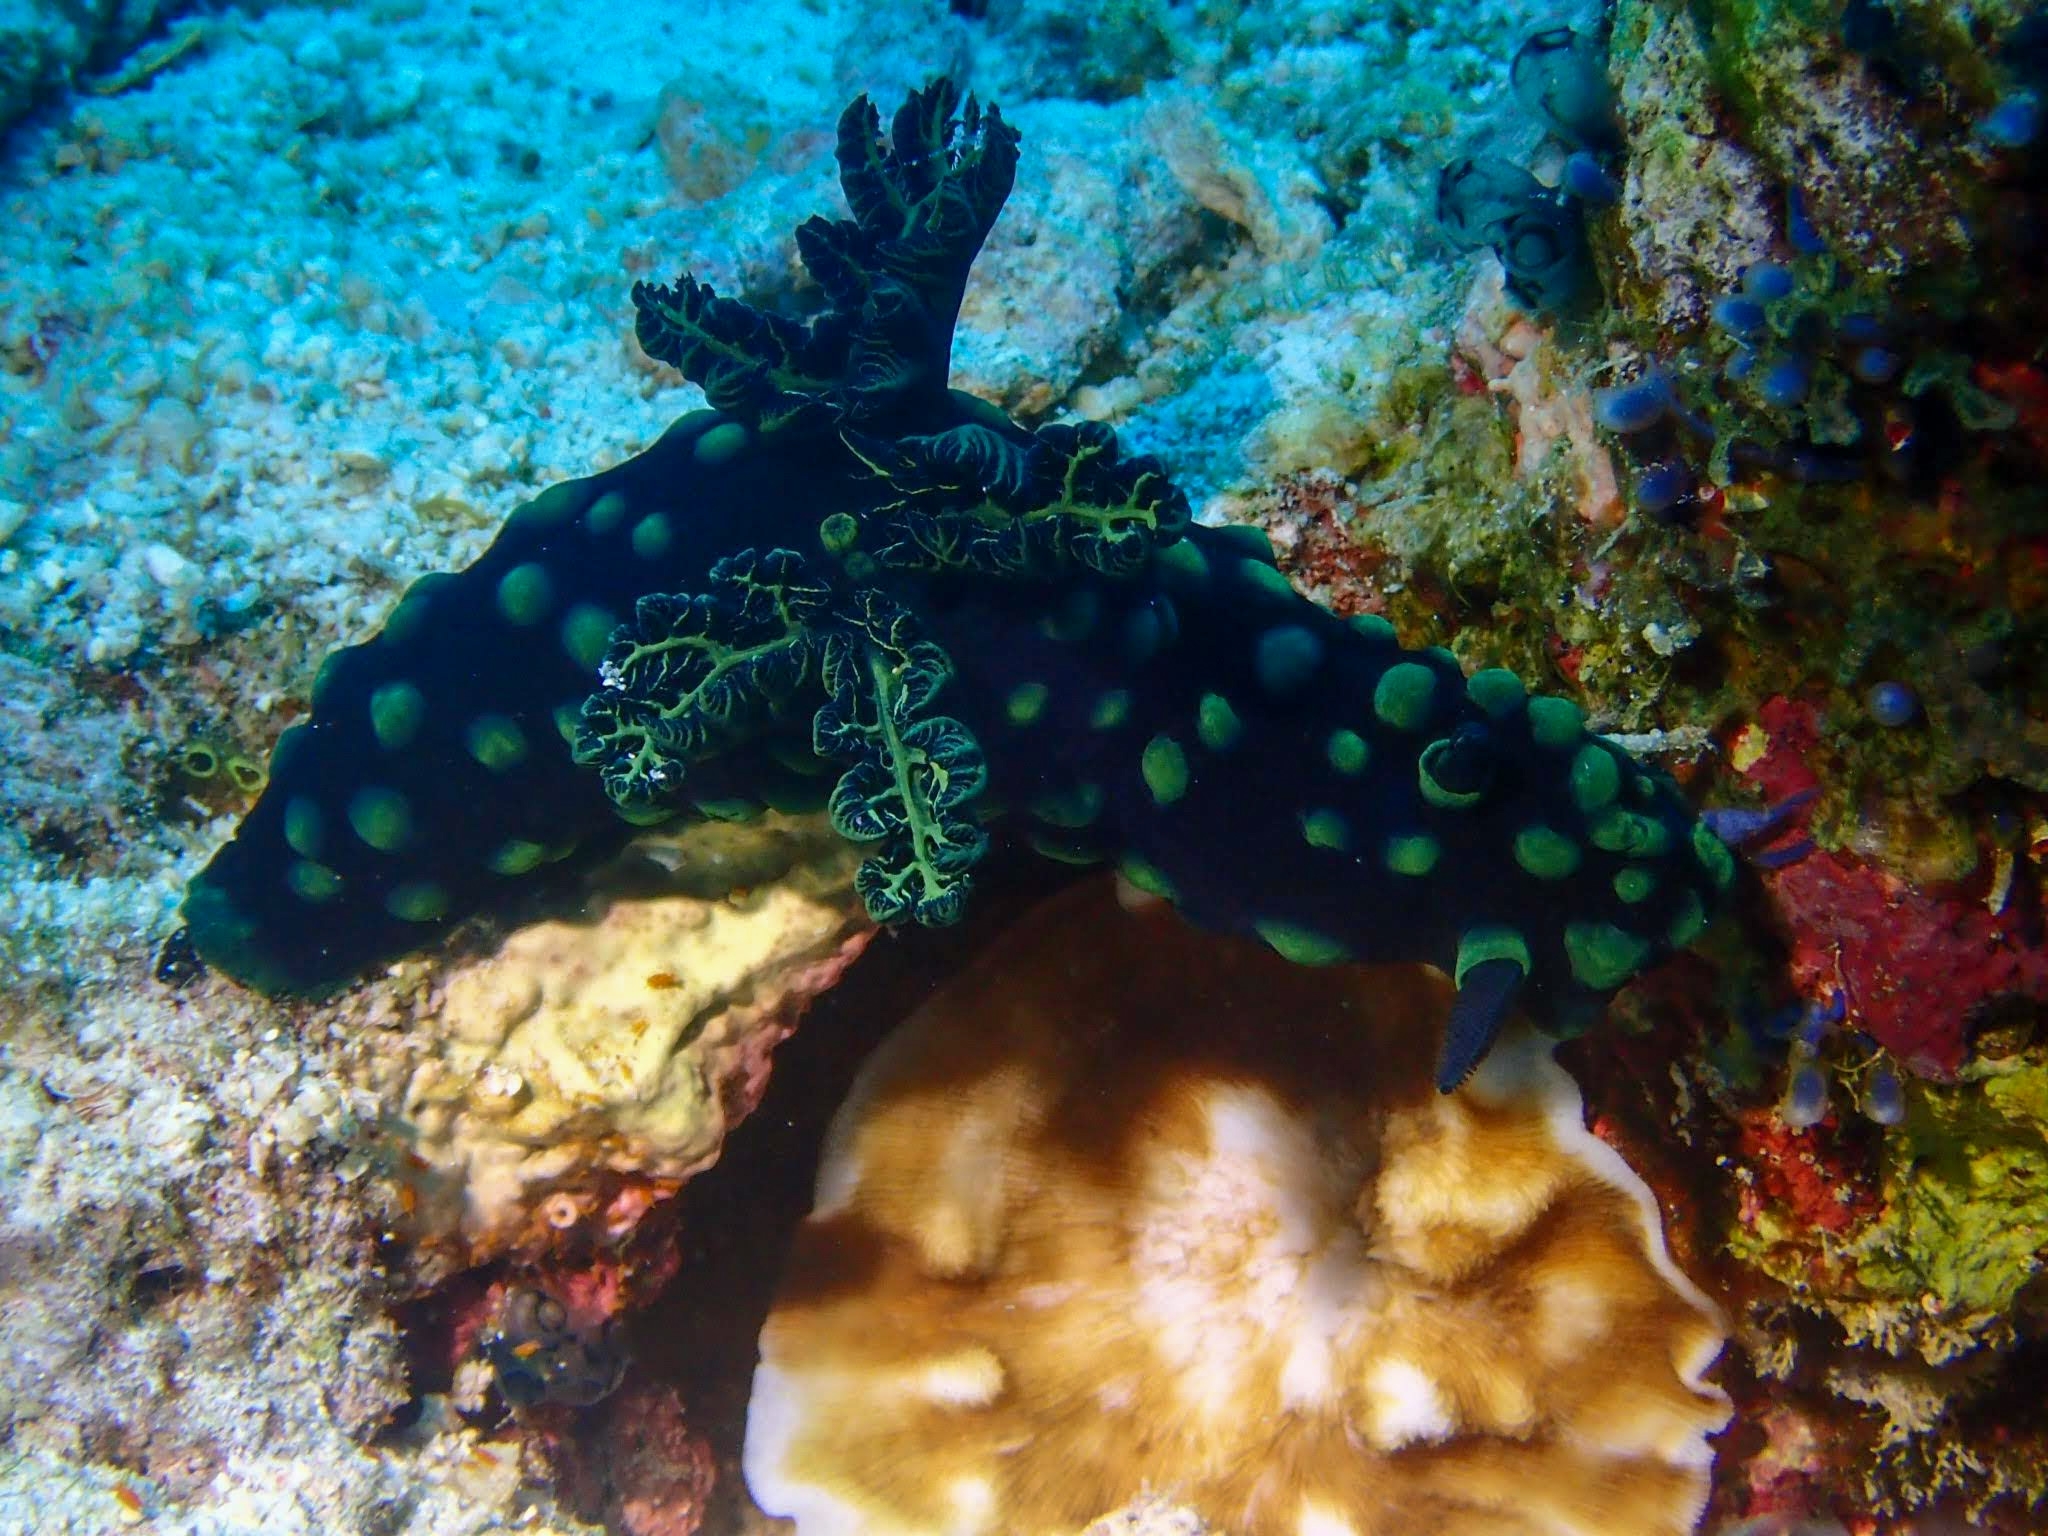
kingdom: Animalia
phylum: Mollusca
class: Gastropoda
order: Nudibranchia
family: Polyceridae
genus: Nembrotha
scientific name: Nembrotha cristata
